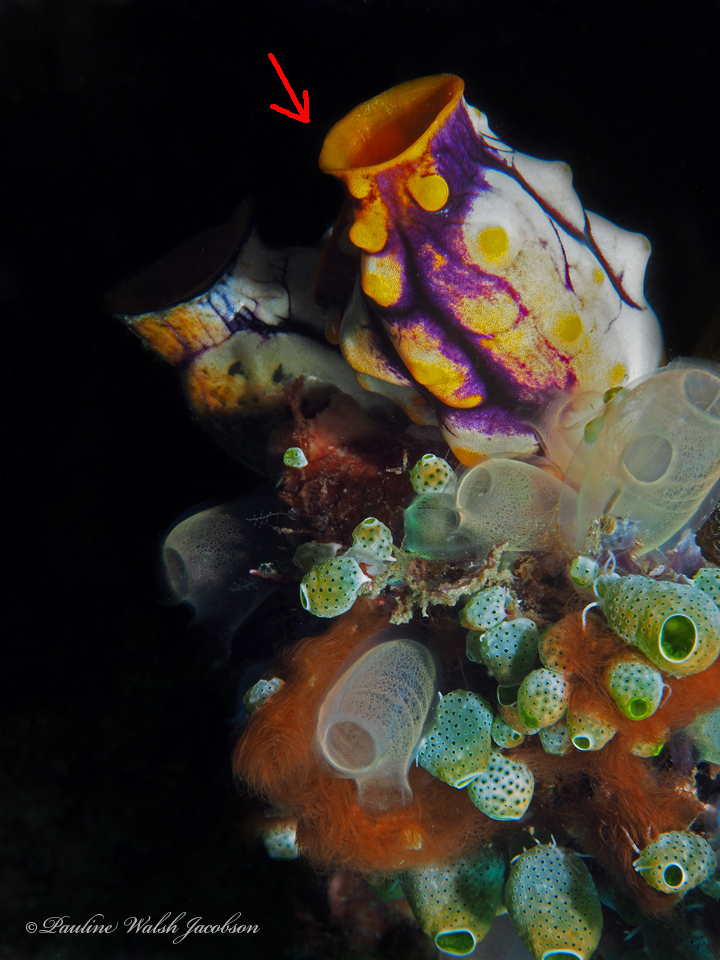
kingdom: Animalia
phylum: Chordata
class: Ascidiacea
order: Stolidobranchia
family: Styelidae
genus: Polycarpa
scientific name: Polycarpa aurata
